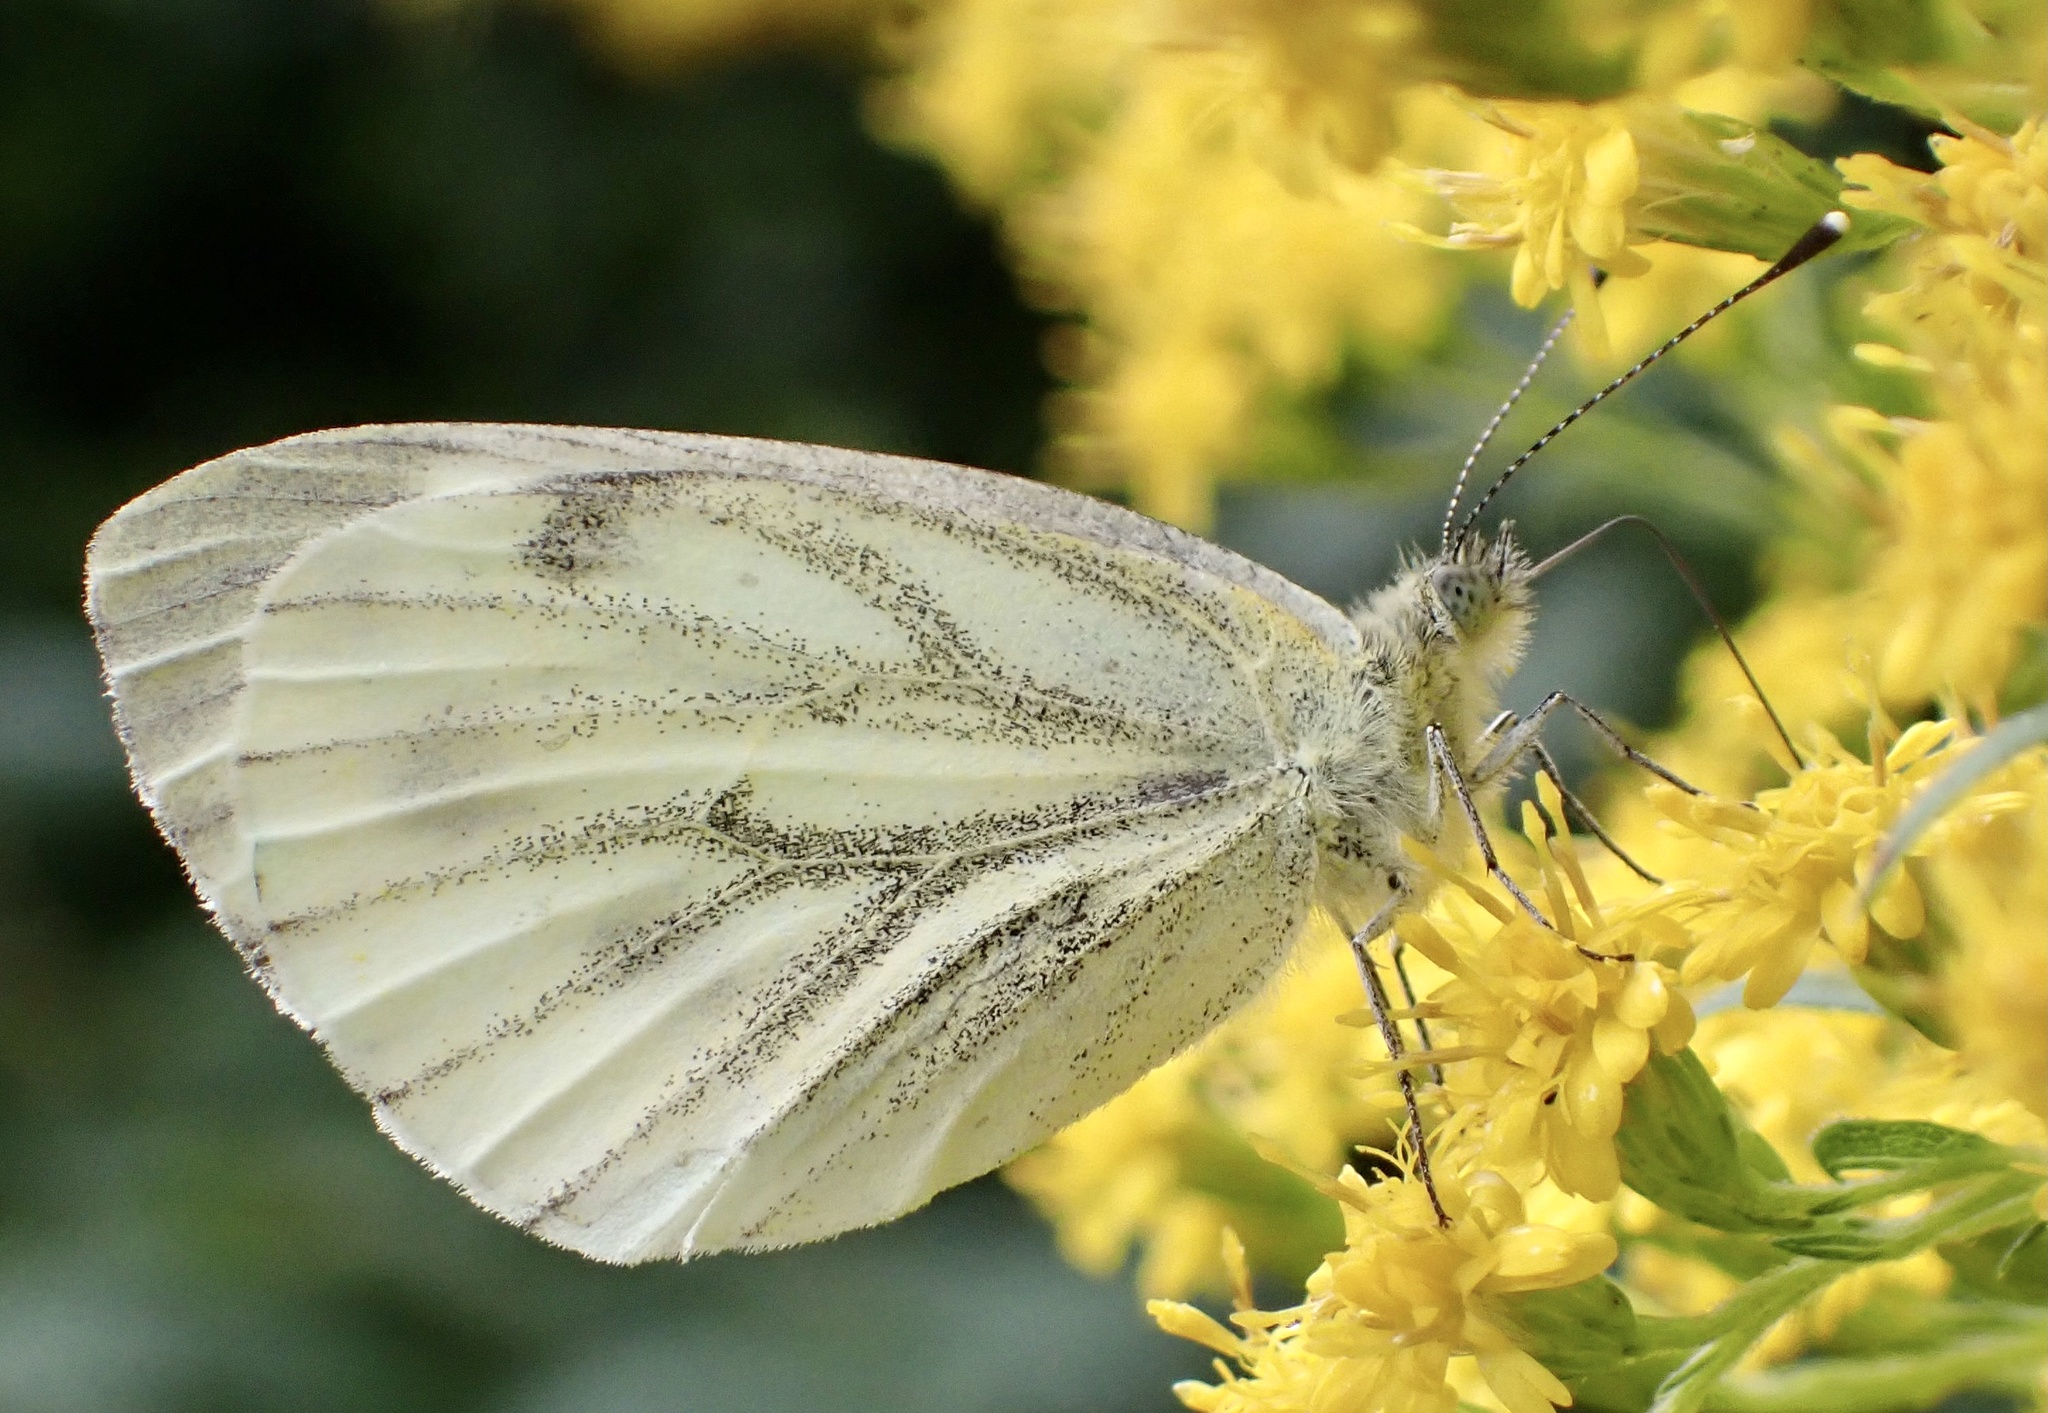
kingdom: Animalia
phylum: Arthropoda
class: Insecta
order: Lepidoptera
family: Pieridae
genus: Pieris
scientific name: Pieris napi
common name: Green-veined white
